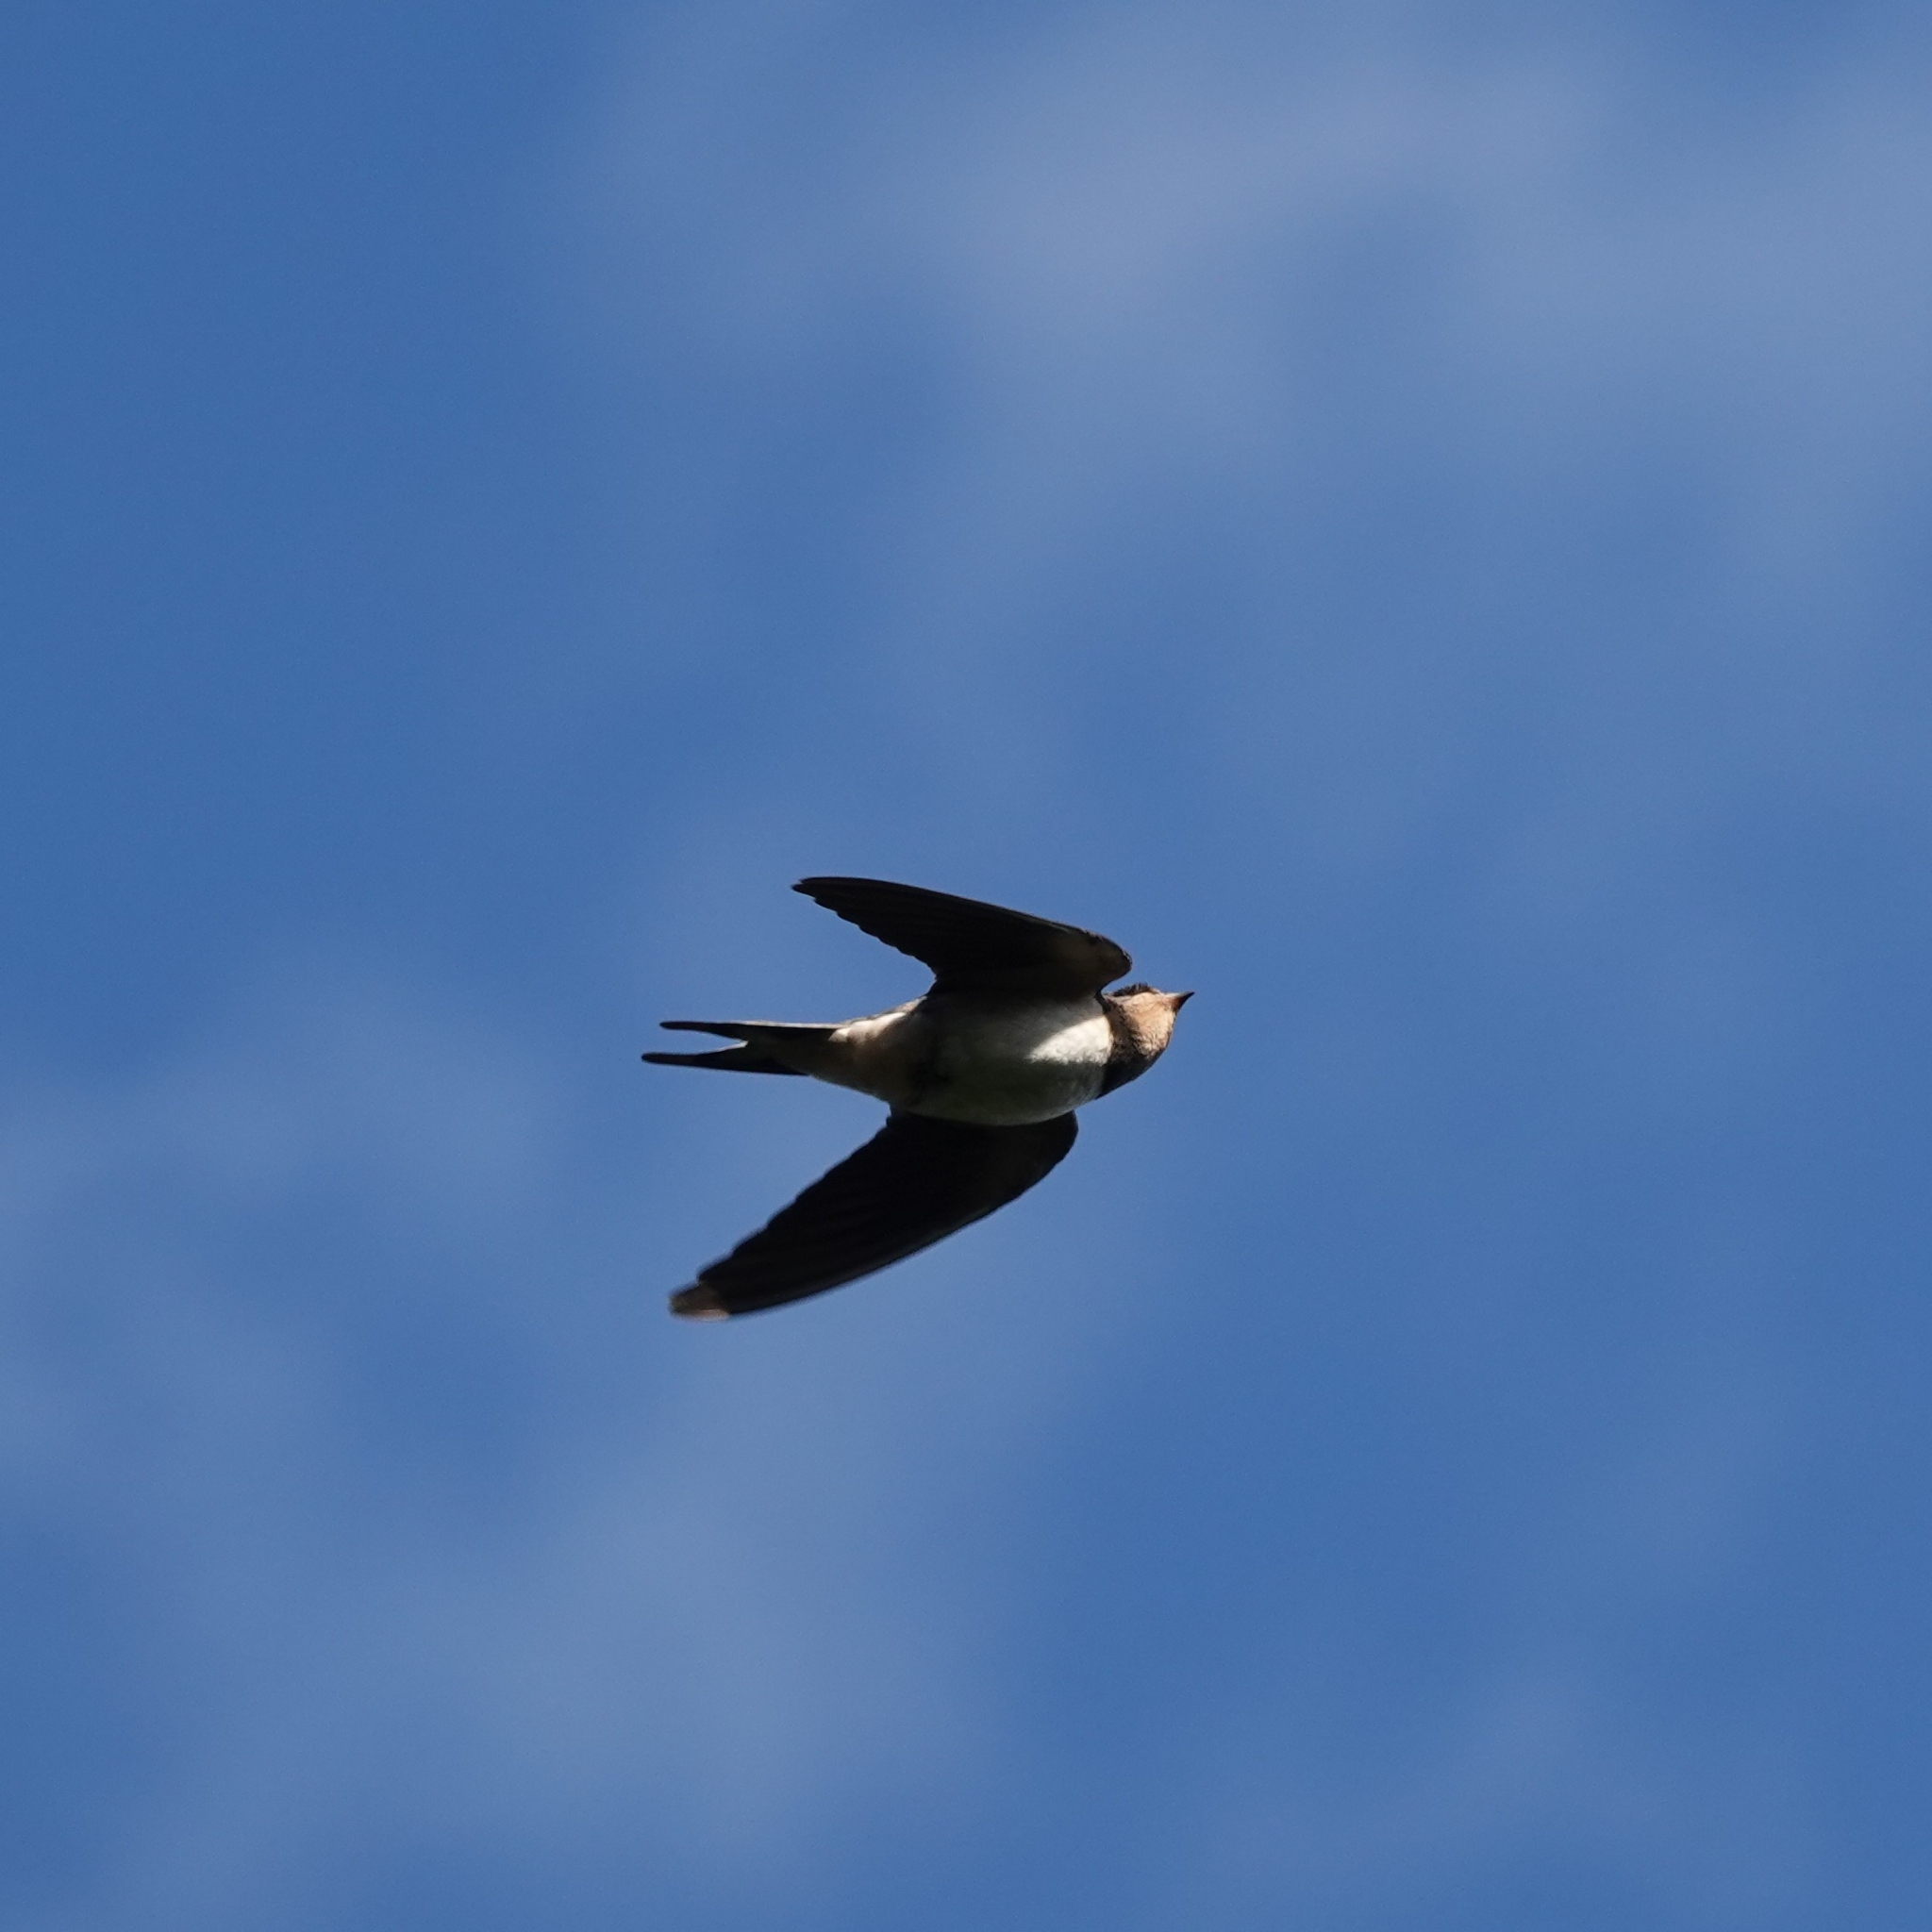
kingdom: Animalia
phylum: Chordata
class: Aves
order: Passeriformes
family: Hirundinidae
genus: Hirundo
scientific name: Hirundo rustica
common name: Barn swallow
